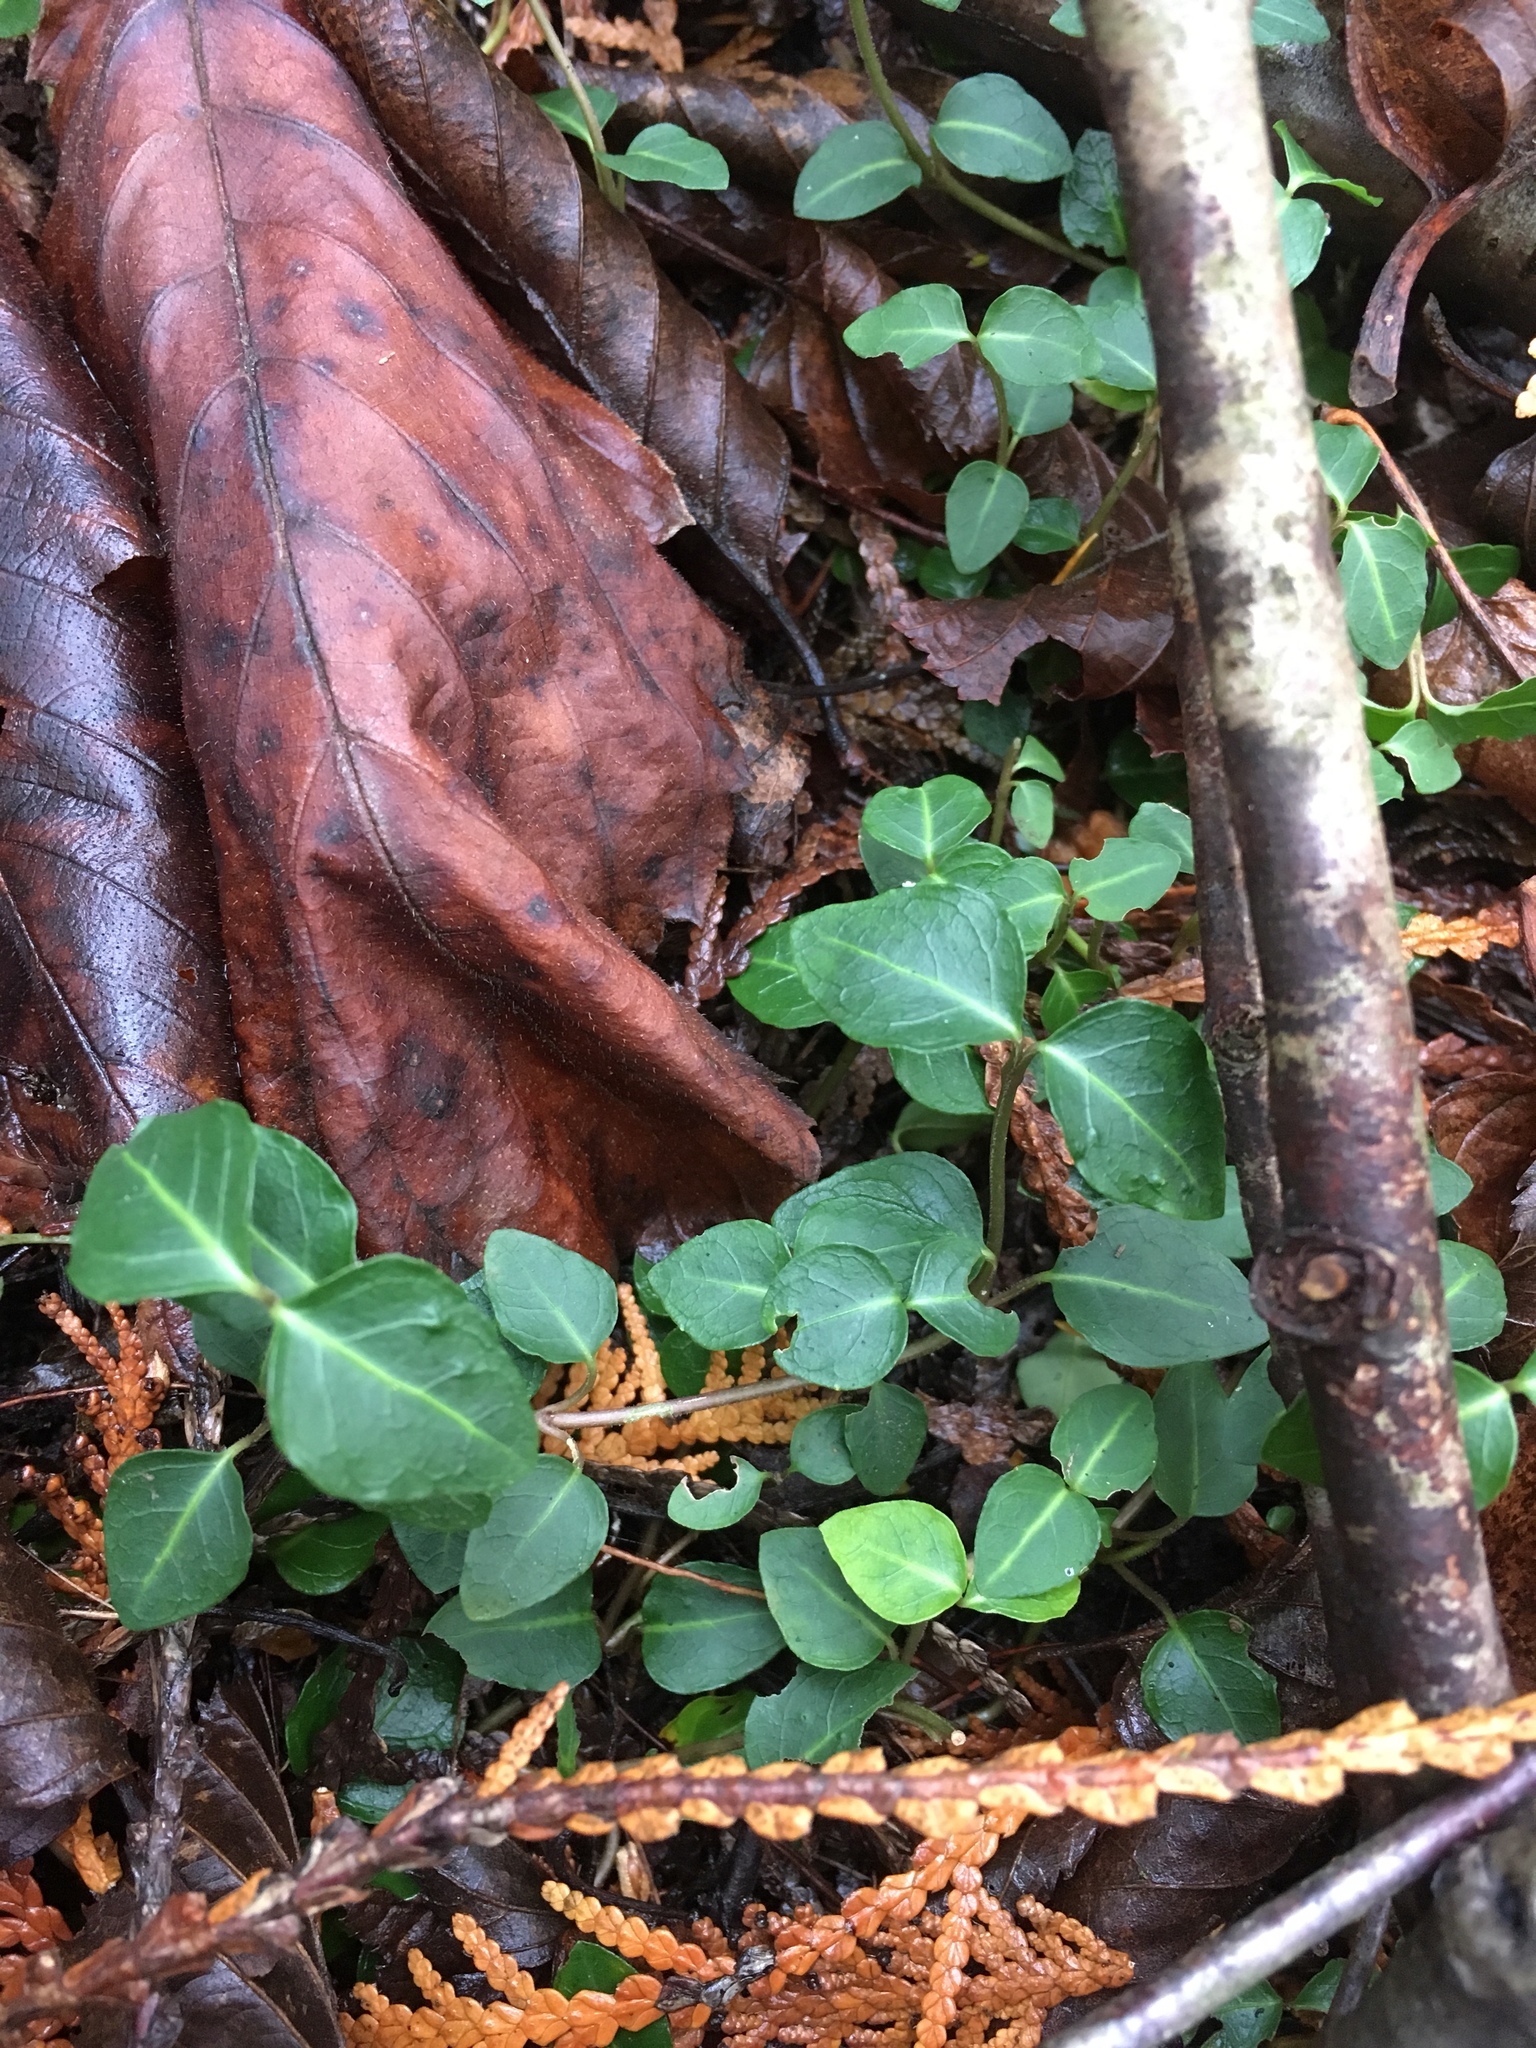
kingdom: Plantae
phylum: Tracheophyta
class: Magnoliopsida
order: Gentianales
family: Rubiaceae
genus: Mitchella
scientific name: Mitchella repens
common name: Partridge-berry
